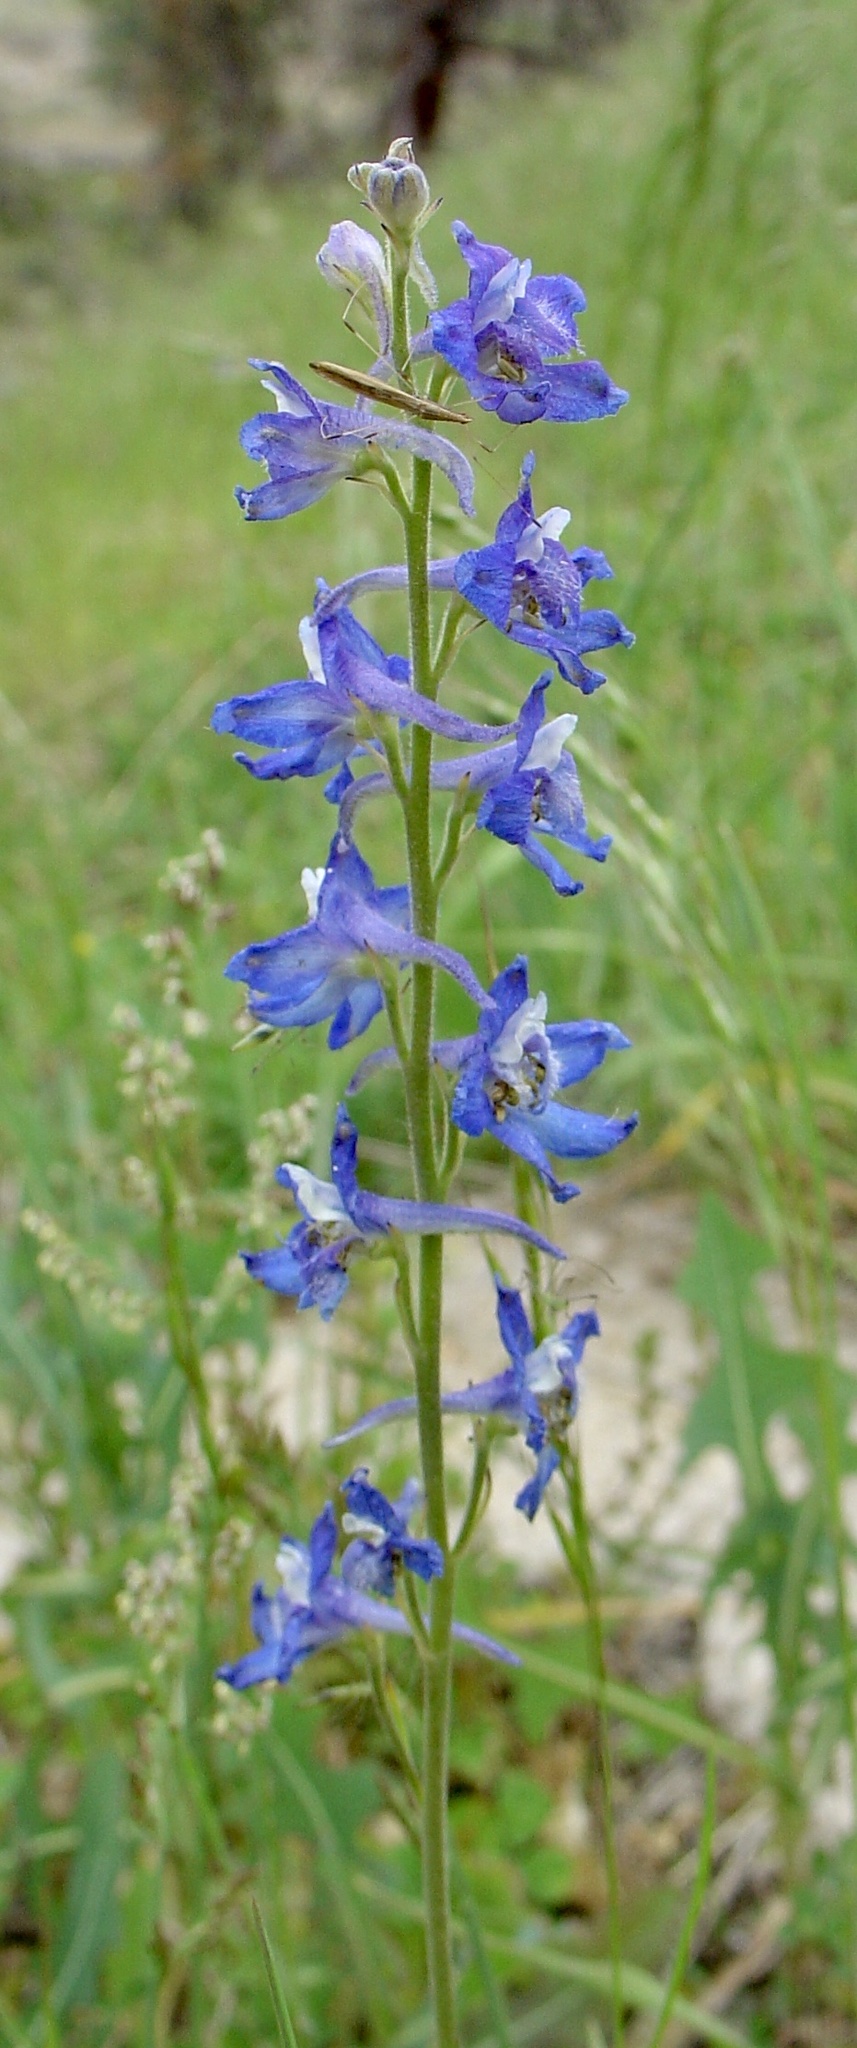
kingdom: Plantae
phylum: Tracheophyta
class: Magnoliopsida
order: Ranunculales
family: Ranunculaceae
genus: Delphinium
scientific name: Delphinium nuttallianum
